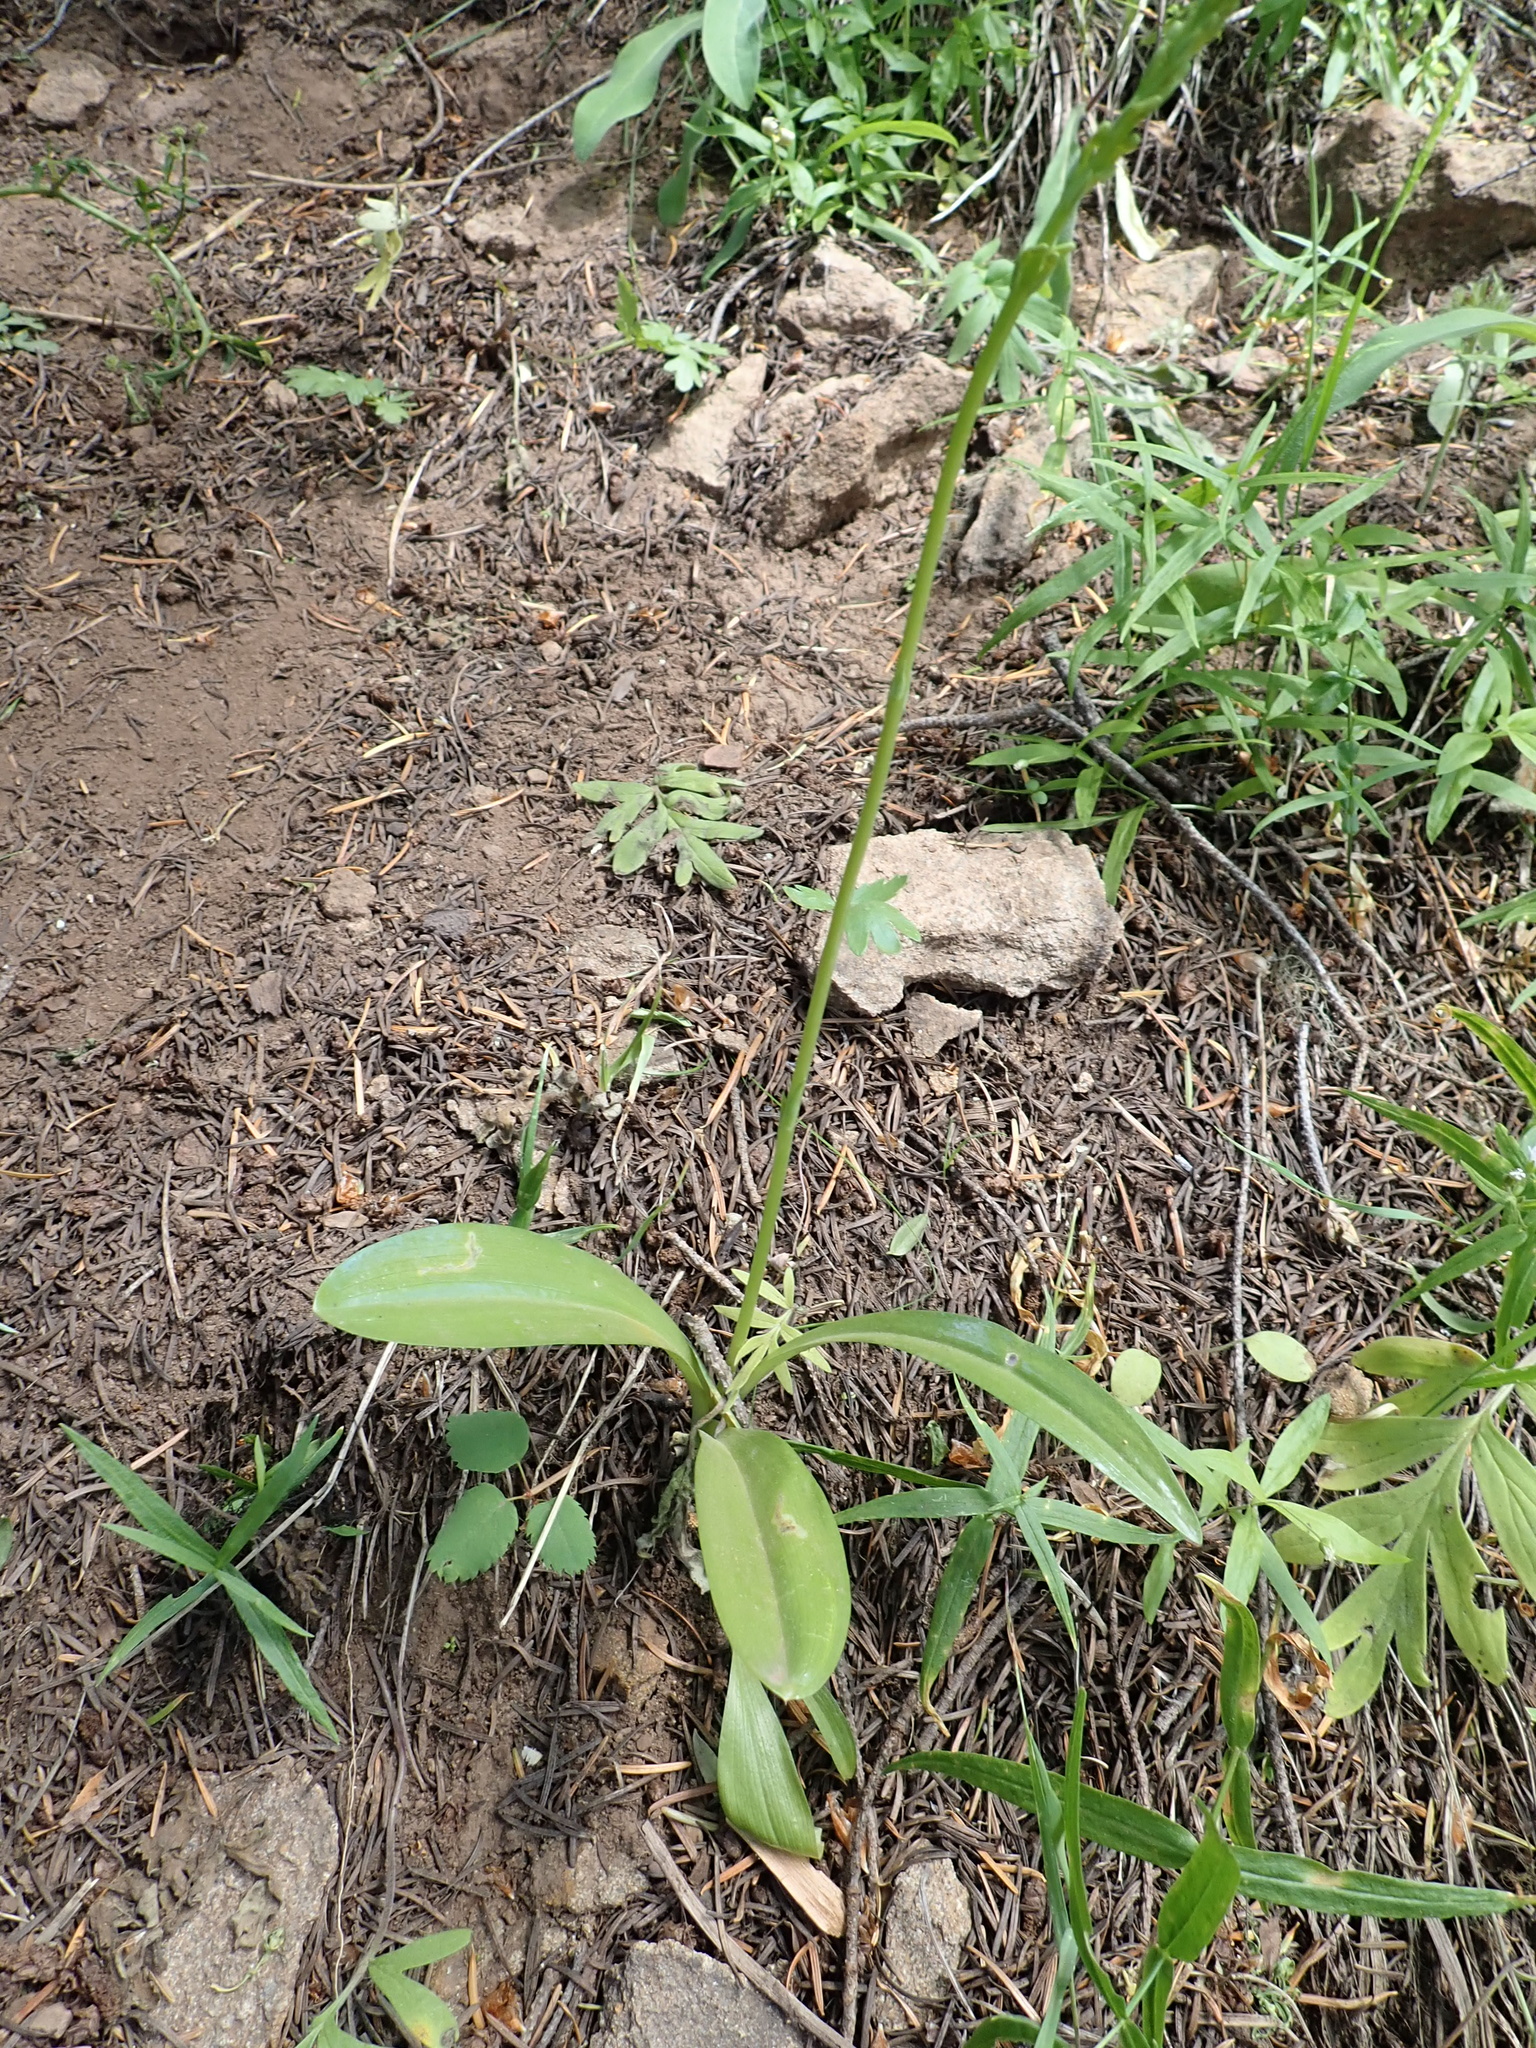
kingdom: Plantae
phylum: Tracheophyta
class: Liliopsida
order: Asparagales
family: Orchidaceae
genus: Platanthera
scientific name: Platanthera unalascensis
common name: Alaska bog orchid
